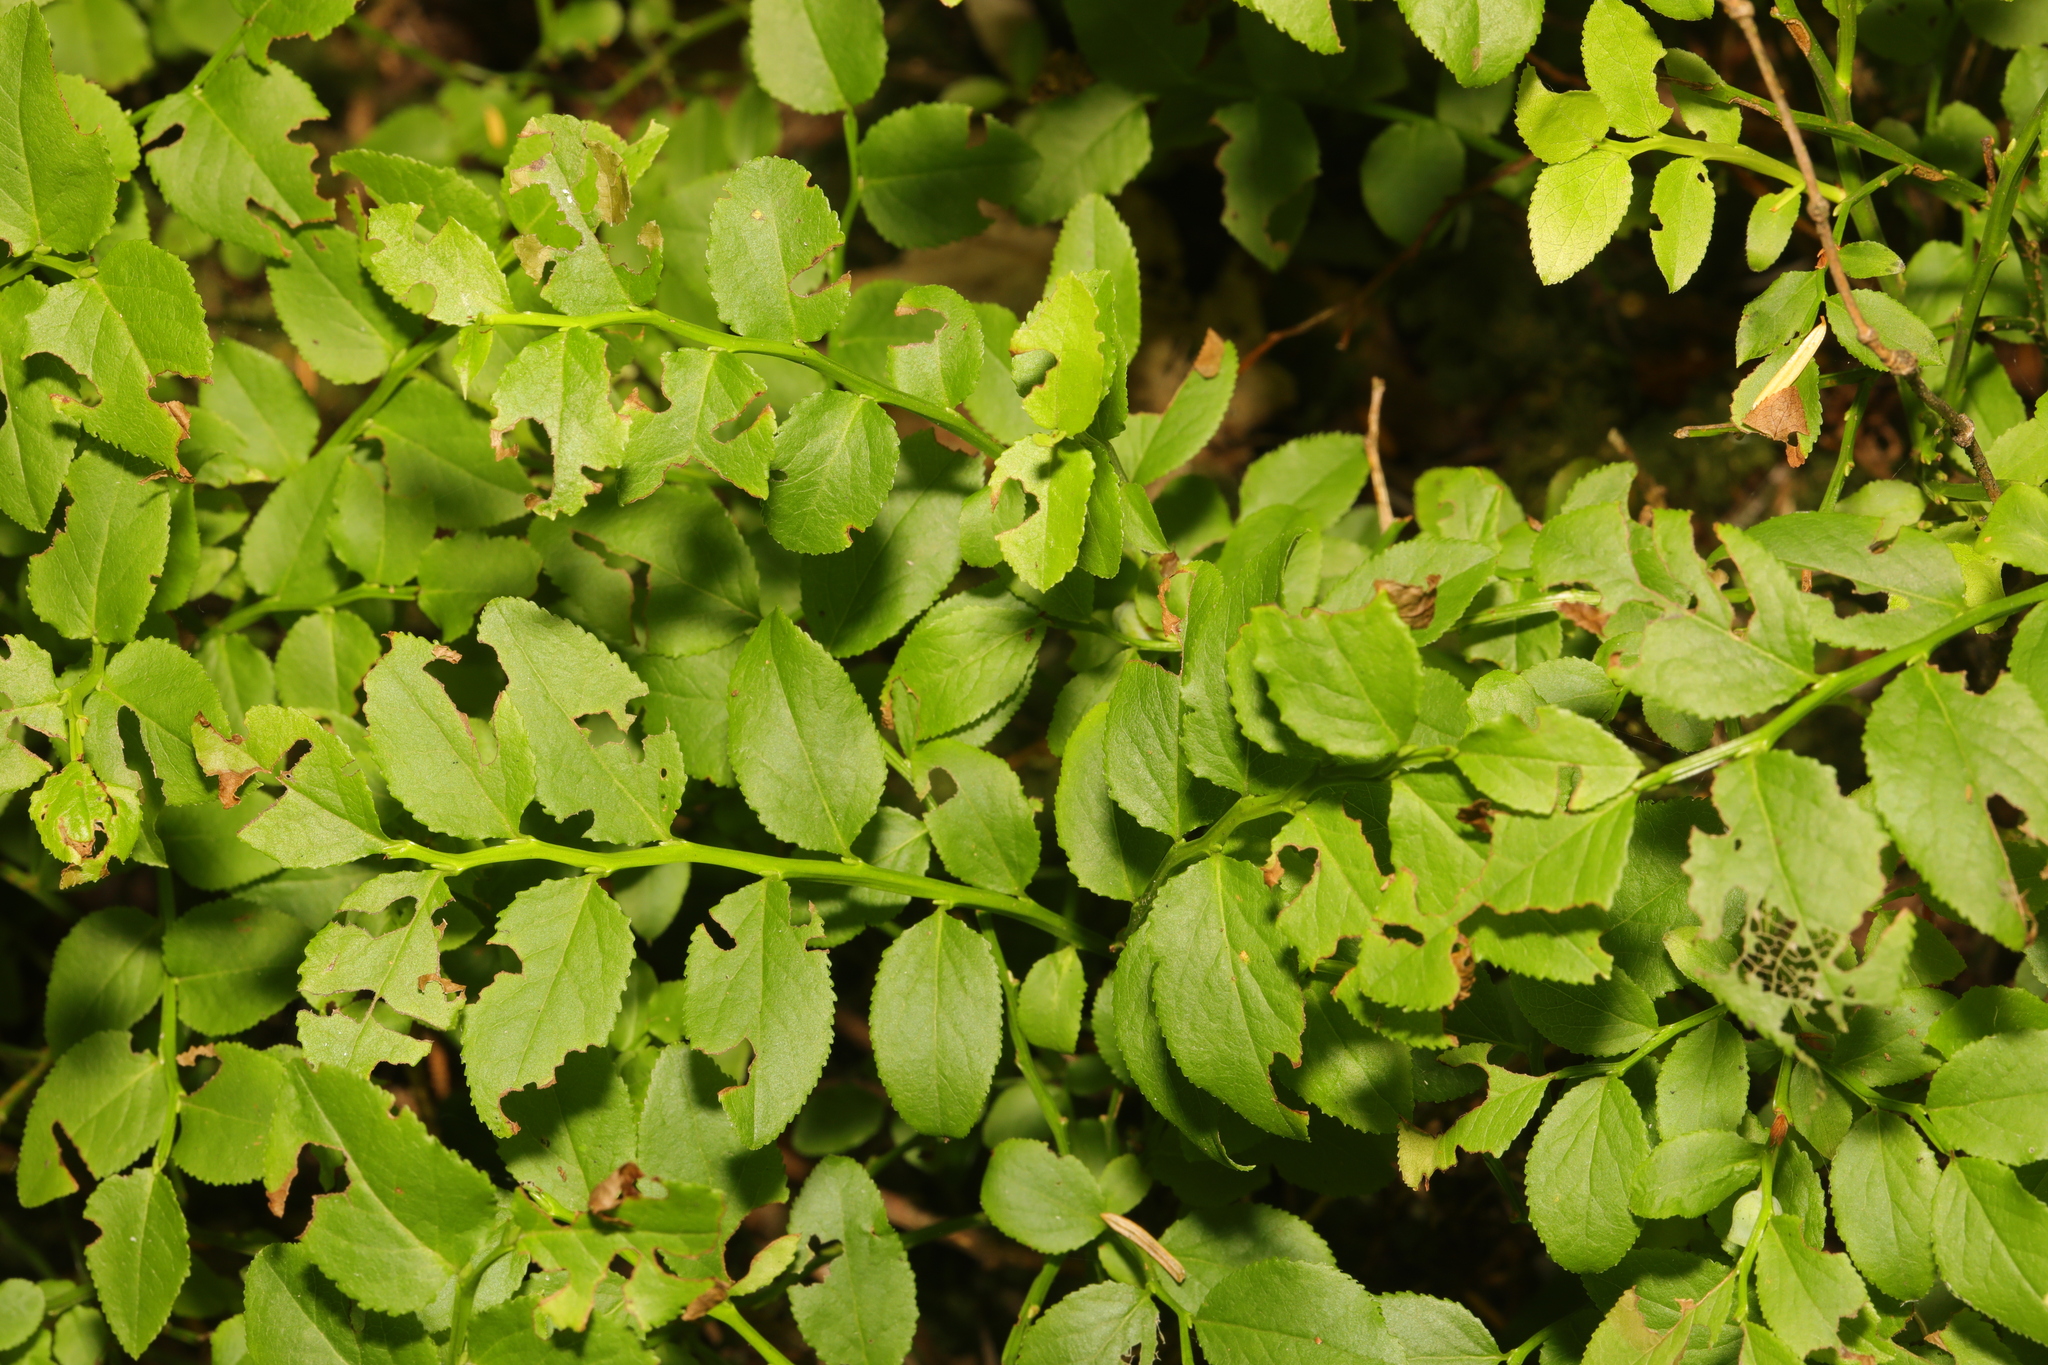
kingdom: Plantae
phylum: Tracheophyta
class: Magnoliopsida
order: Ericales
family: Ericaceae
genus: Vaccinium
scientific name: Vaccinium myrtillus
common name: Bilberry
